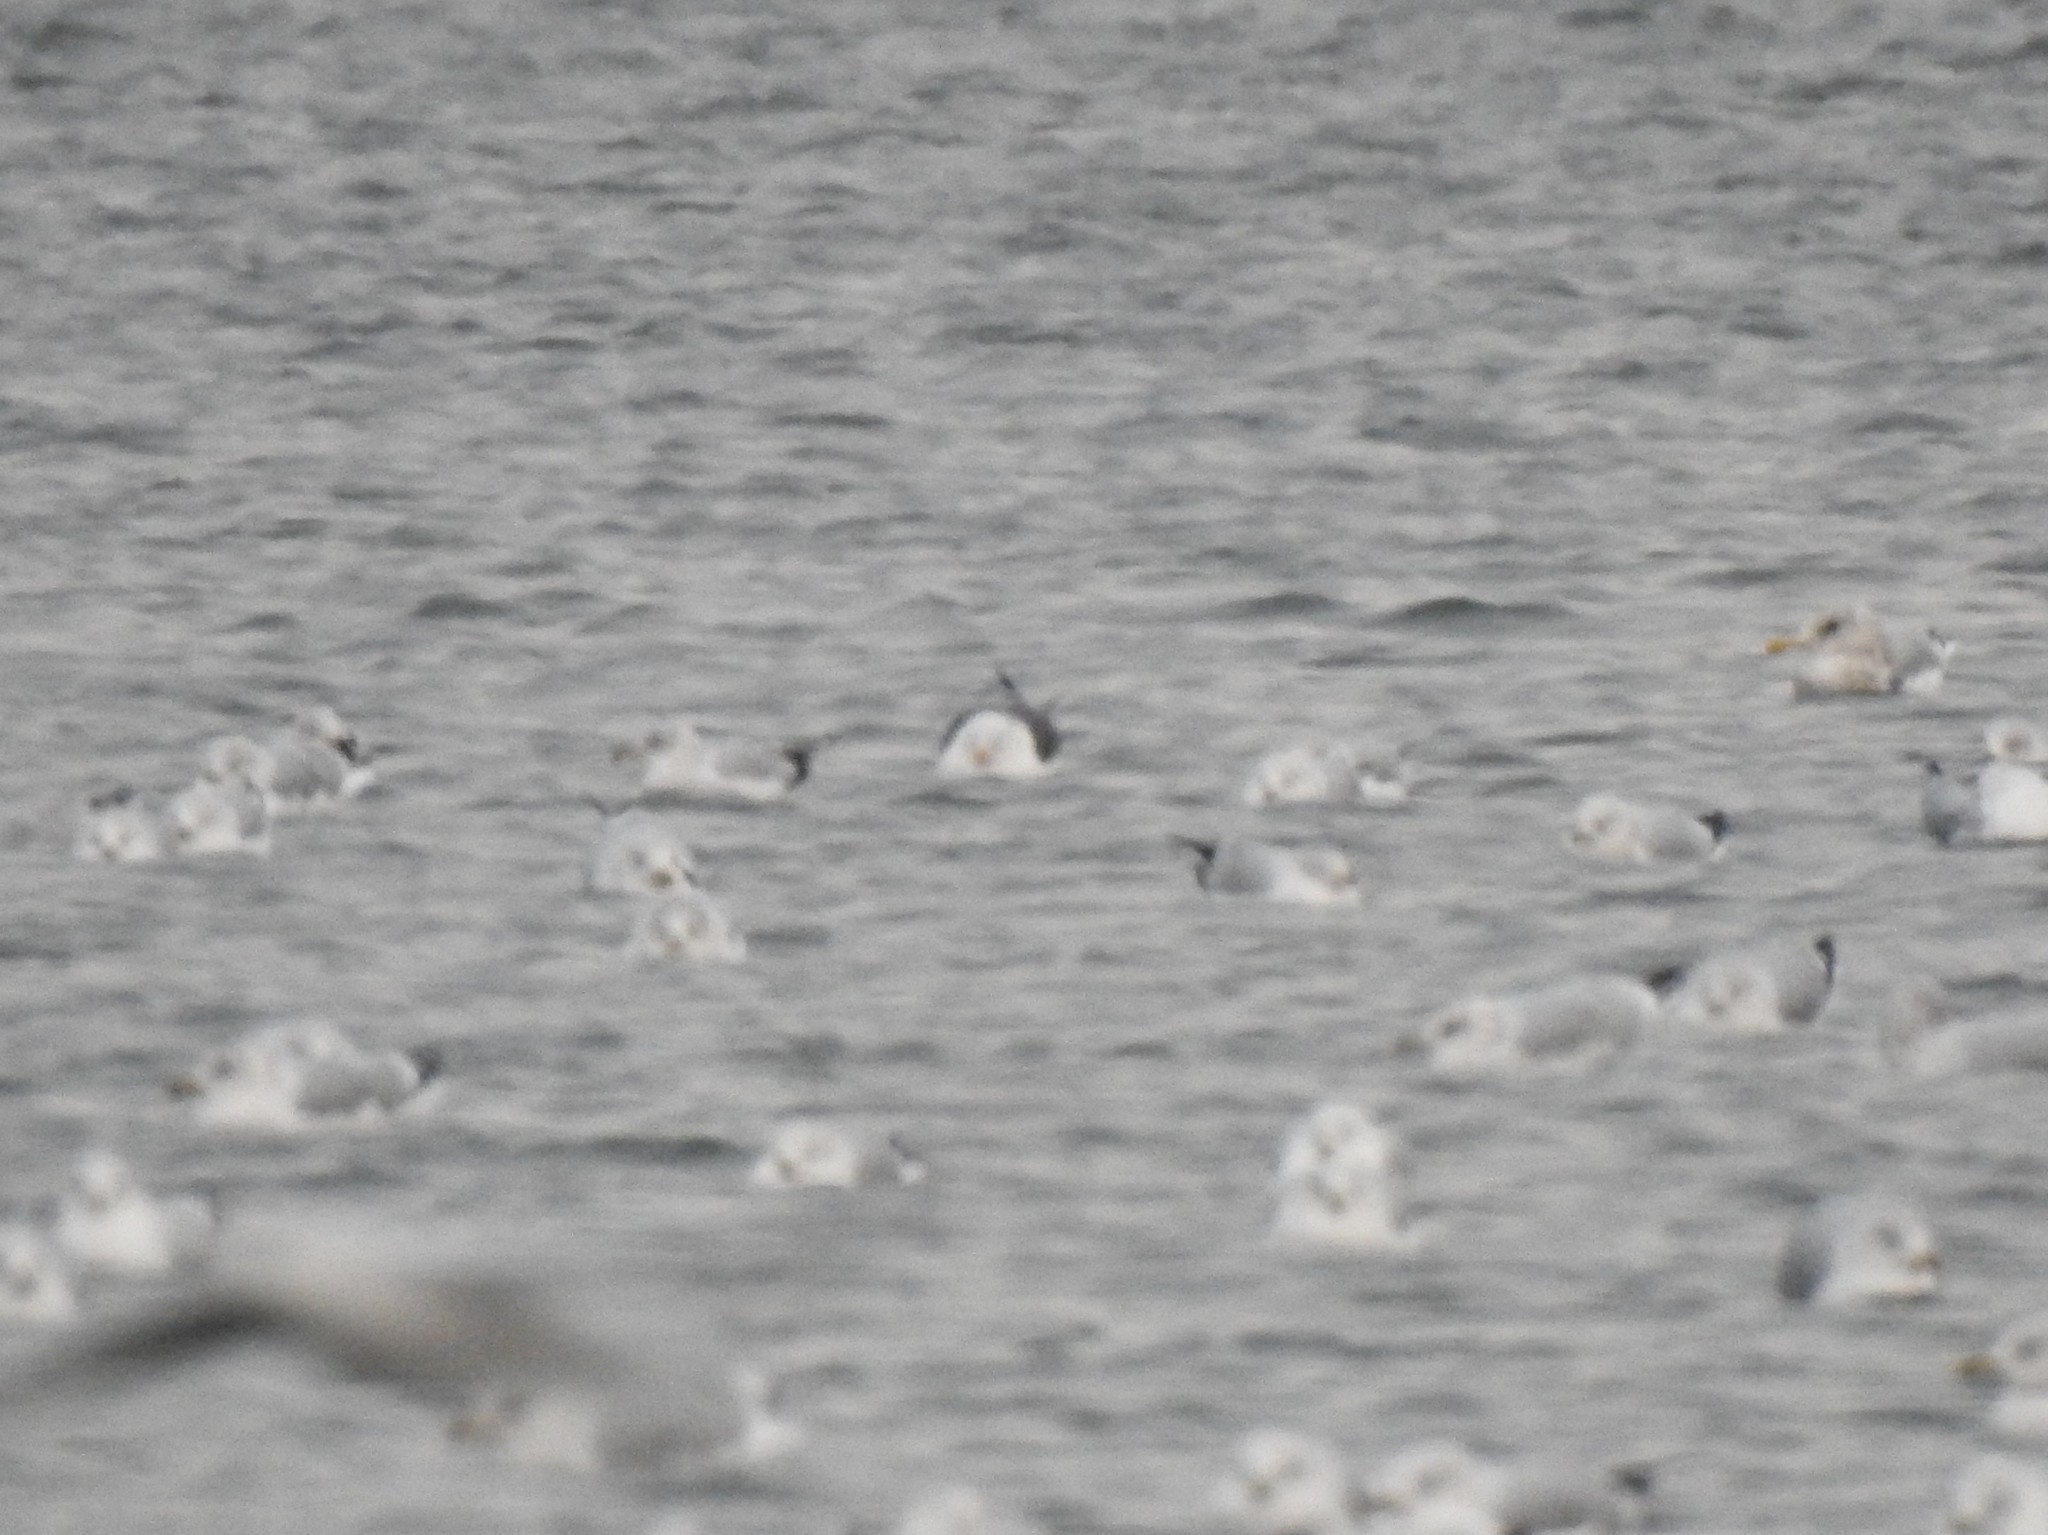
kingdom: Animalia
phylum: Chordata
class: Aves
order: Charadriiformes
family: Laridae
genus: Larus
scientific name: Larus fuscus
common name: Lesser black-backed gull
